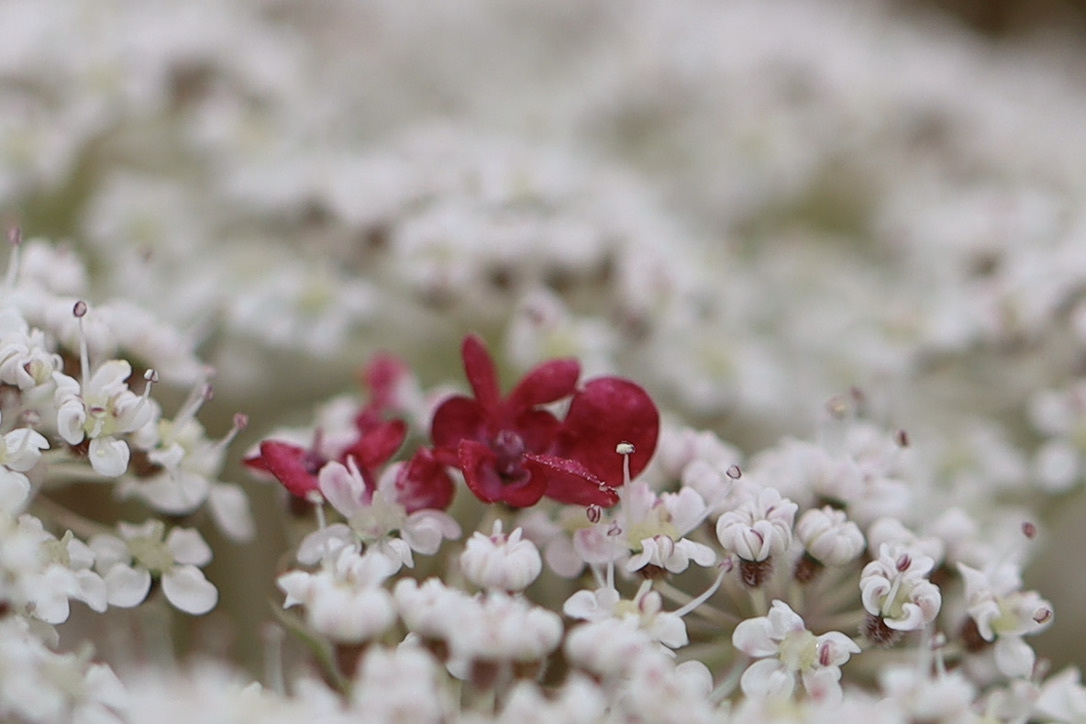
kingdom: Plantae
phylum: Tracheophyta
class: Magnoliopsida
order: Apiales
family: Apiaceae
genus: Daucus
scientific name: Daucus carota
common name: Wild carrot
